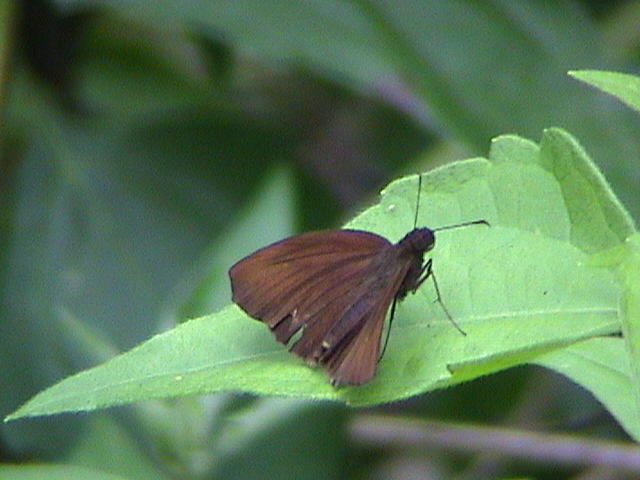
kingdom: Animalia
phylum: Arthropoda
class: Insecta
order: Lepidoptera
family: Hesperiidae
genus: Psolos
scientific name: Psolos fuligo
